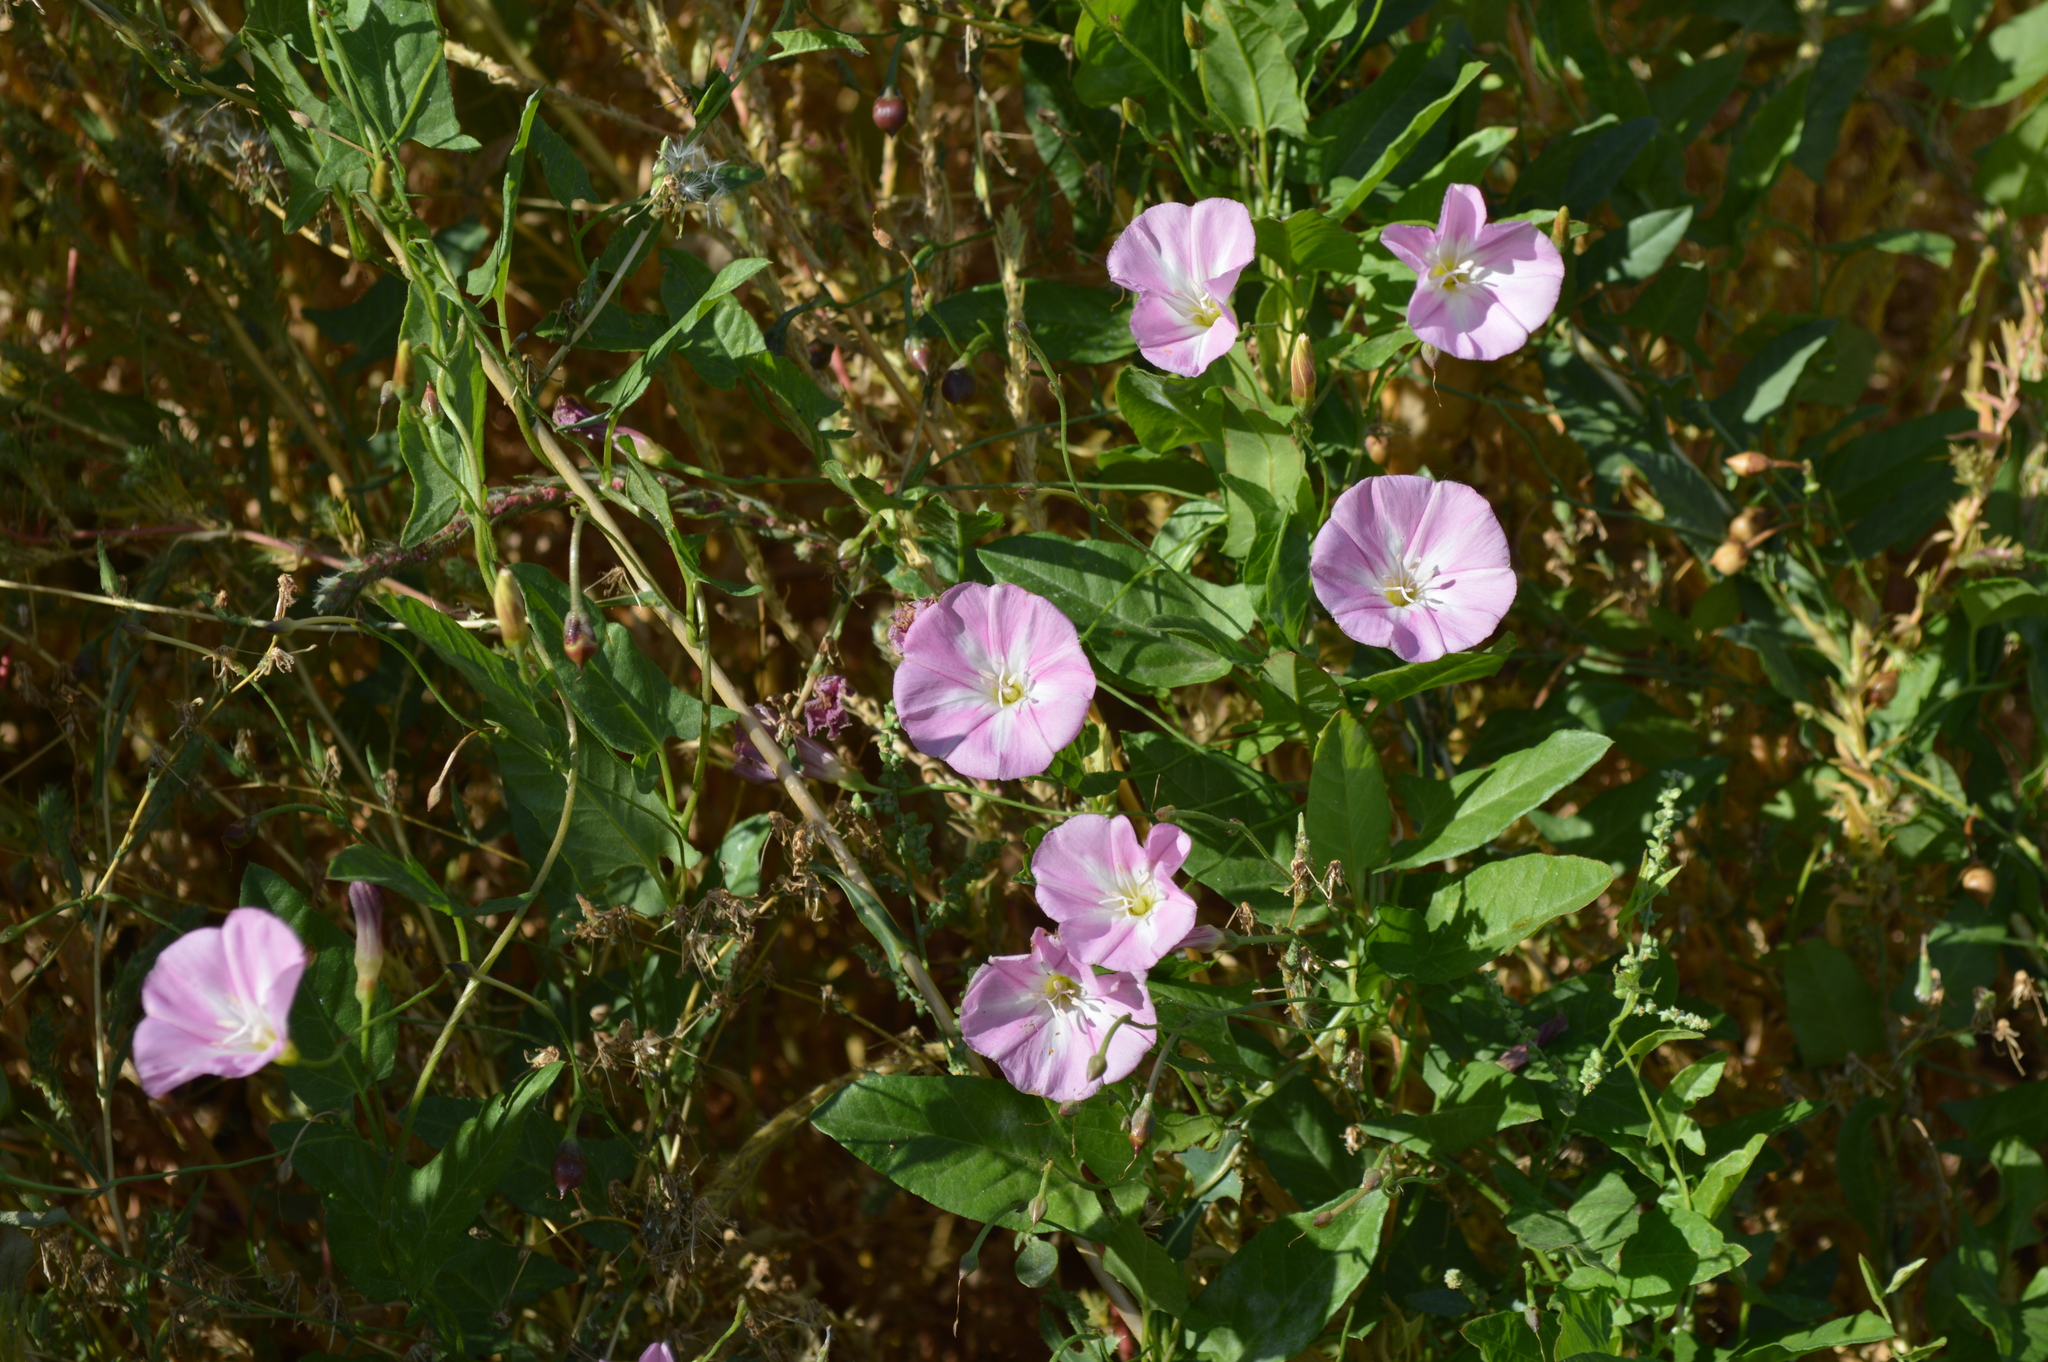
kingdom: Plantae
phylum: Tracheophyta
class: Magnoliopsida
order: Solanales
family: Convolvulaceae
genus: Convolvulus
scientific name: Convolvulus arvensis
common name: Field bindweed
